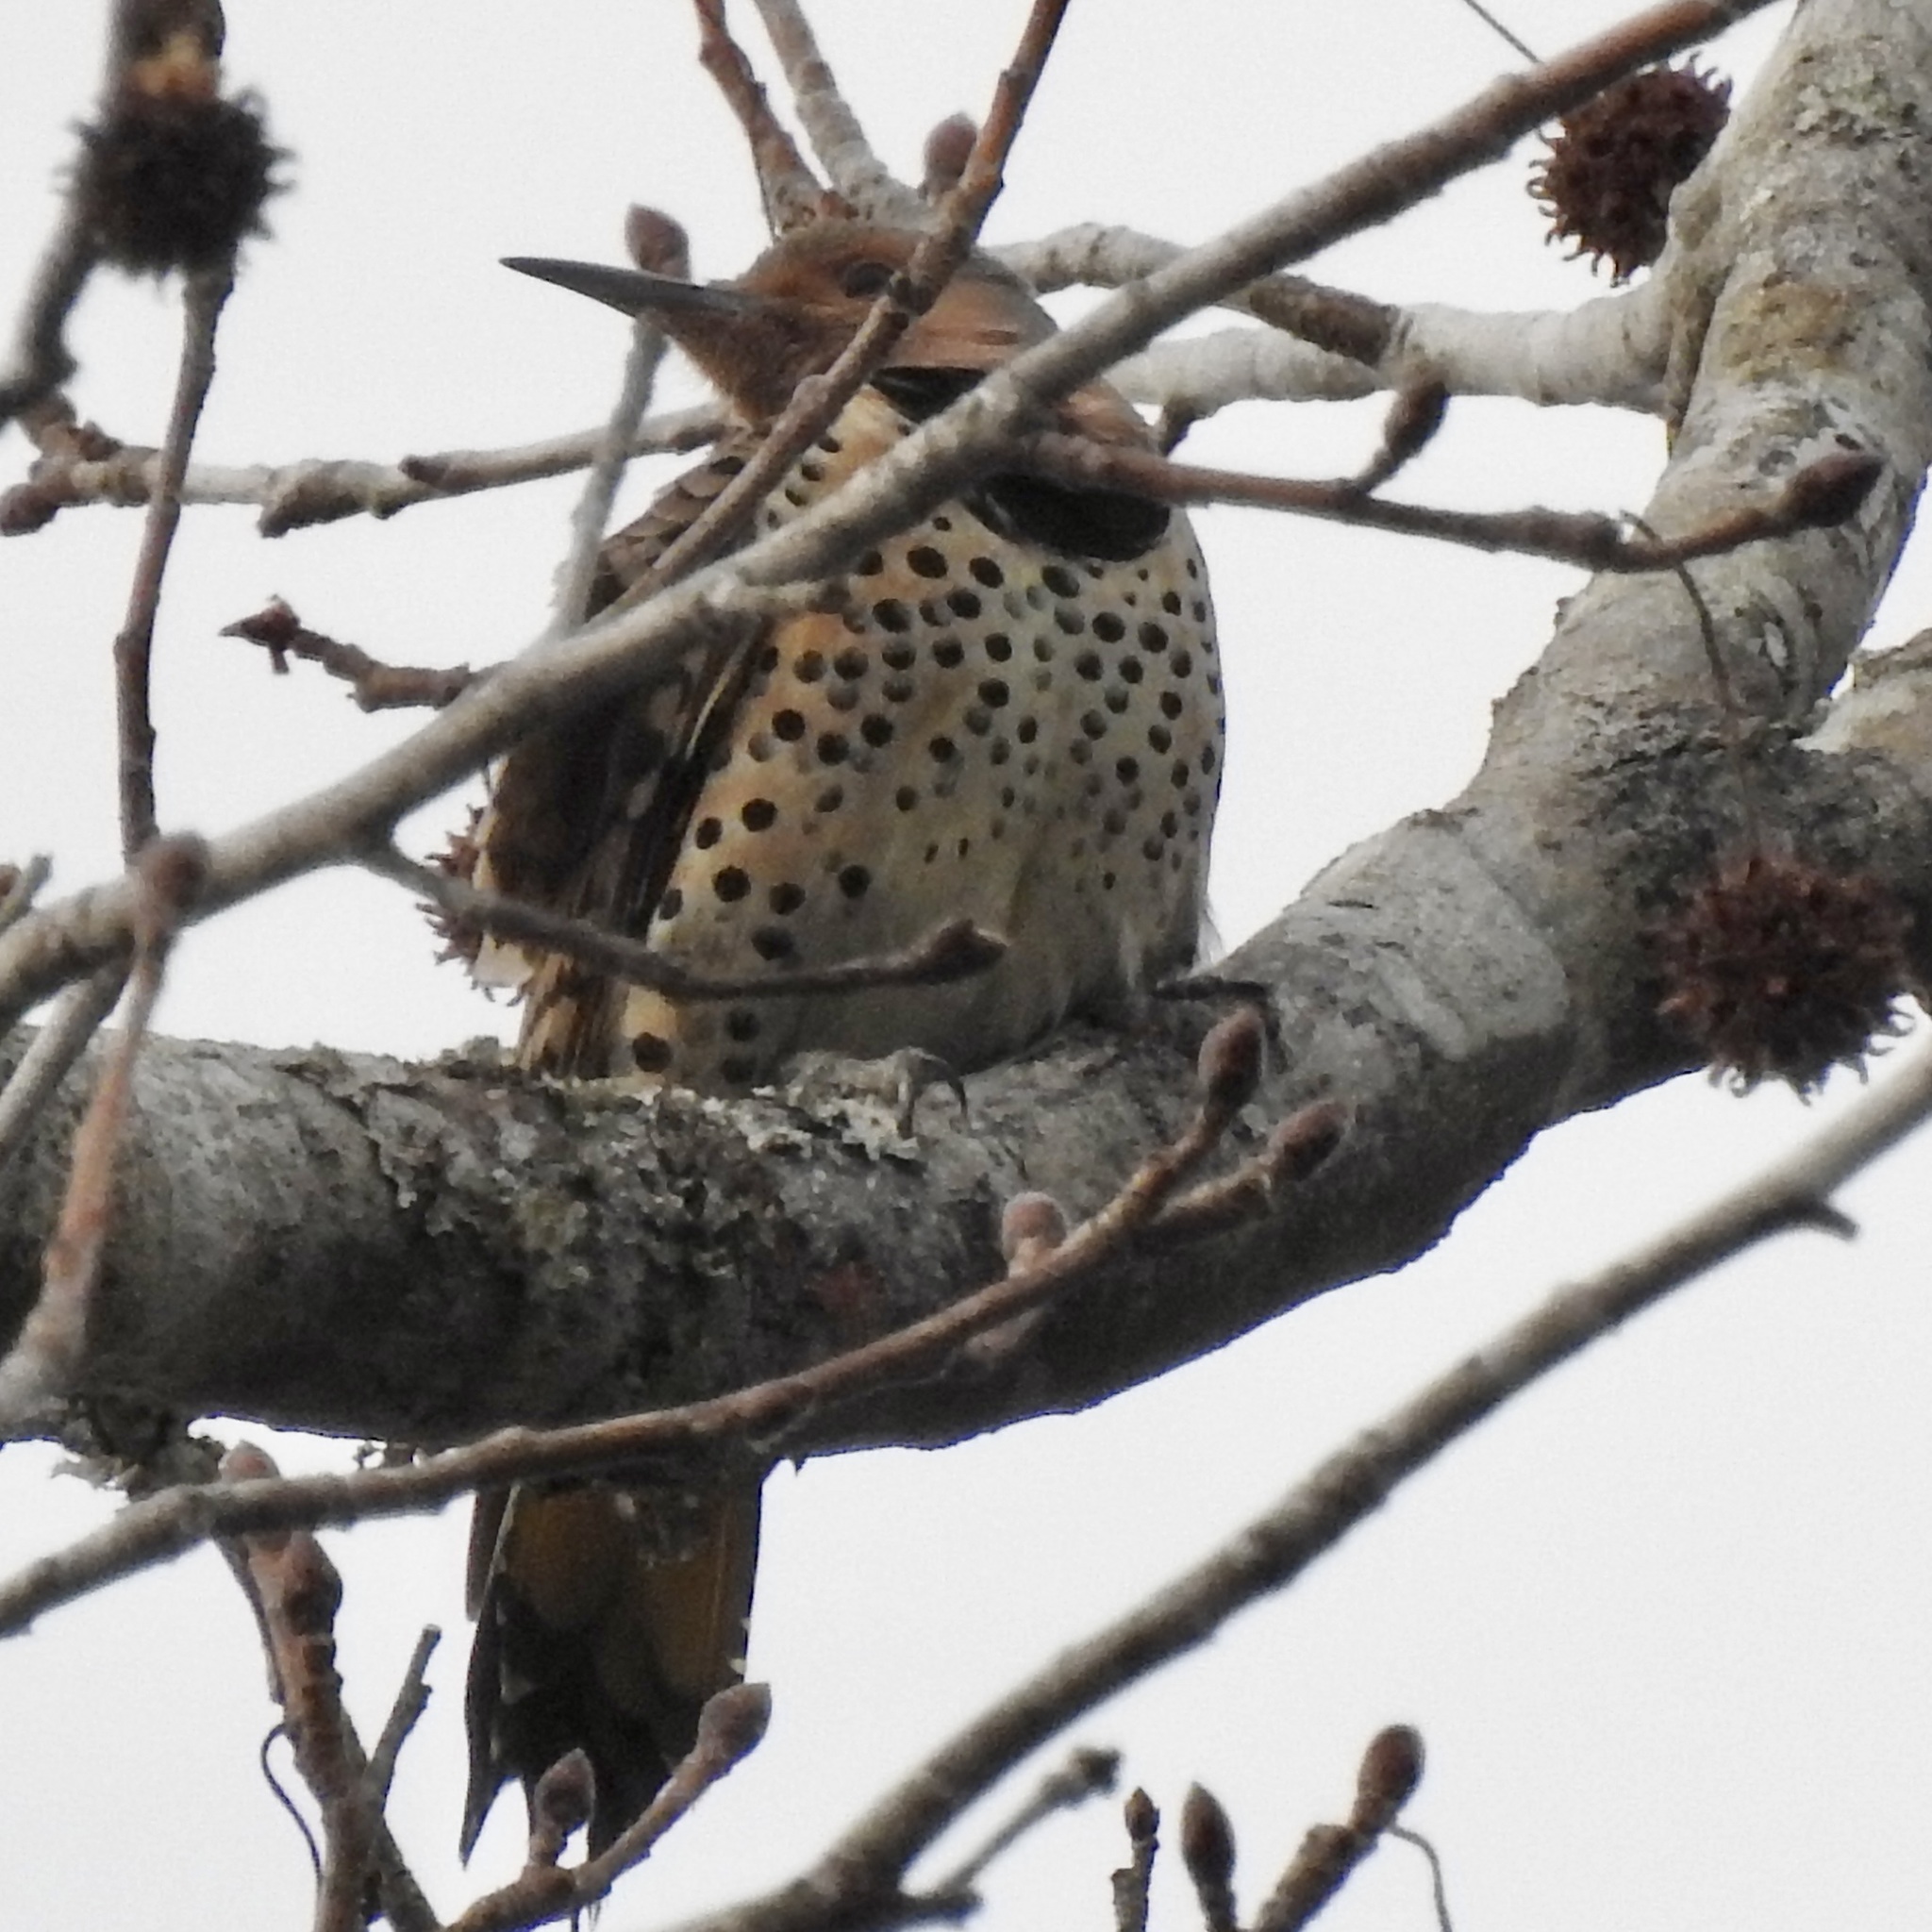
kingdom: Animalia
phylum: Chordata
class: Aves
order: Piciformes
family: Picidae
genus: Colaptes
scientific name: Colaptes auratus
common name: Northern flicker
